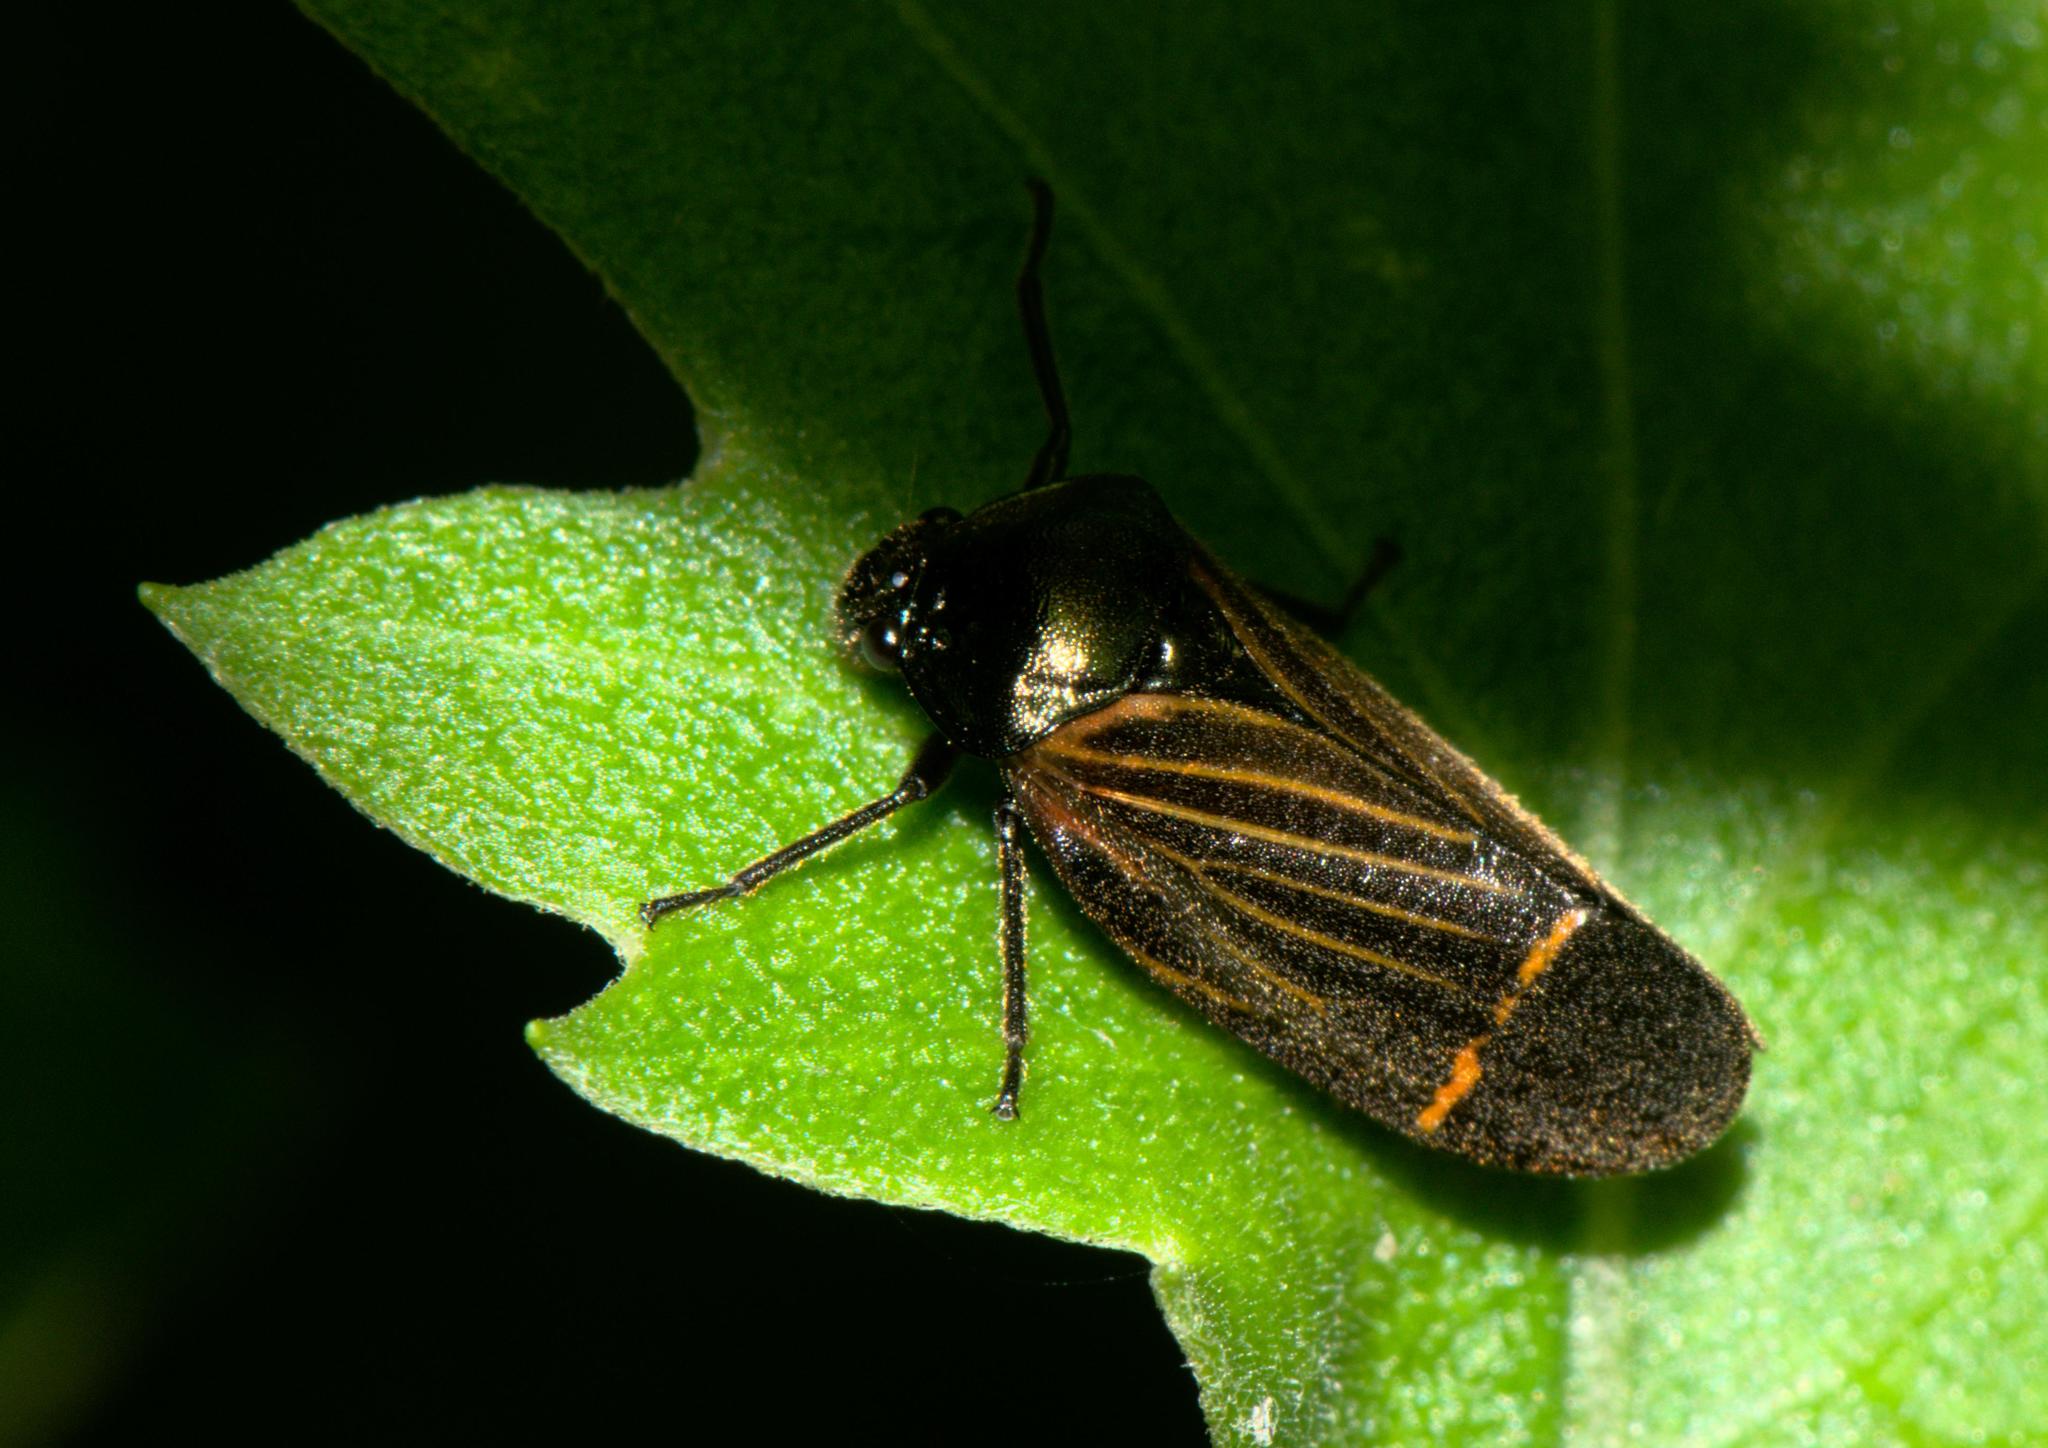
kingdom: Animalia
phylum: Arthropoda
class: Insecta
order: Hemiptera
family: Cercopidae
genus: Cosmoscarta
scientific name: Cosmoscarta elegantula
